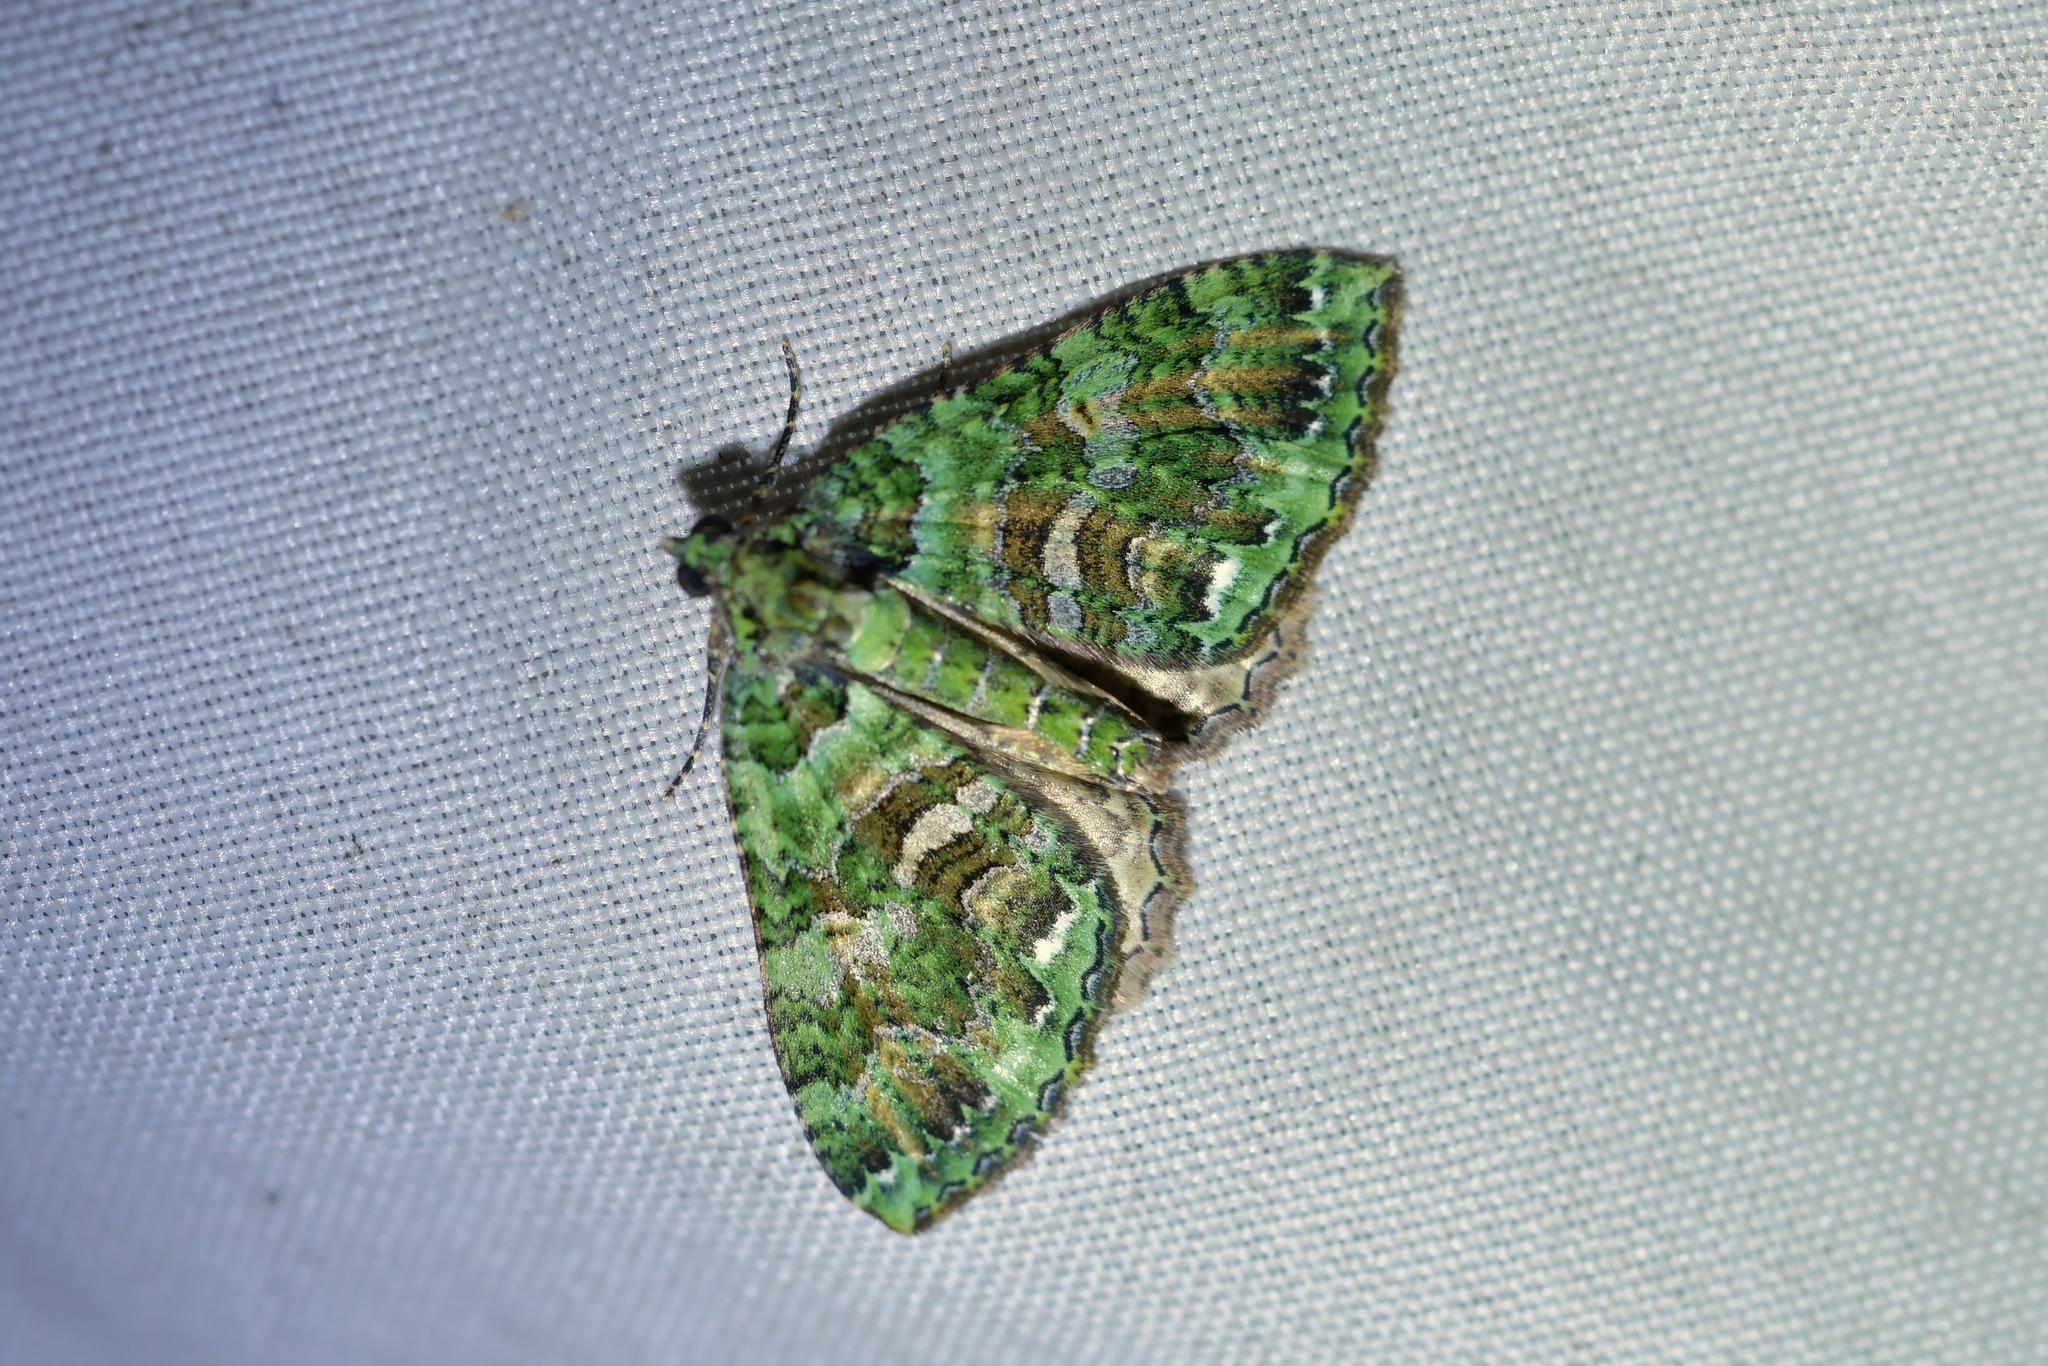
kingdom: Animalia
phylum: Arthropoda
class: Insecta
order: Lepidoptera
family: Geometridae
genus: Austrocidaria
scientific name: Austrocidaria similata
